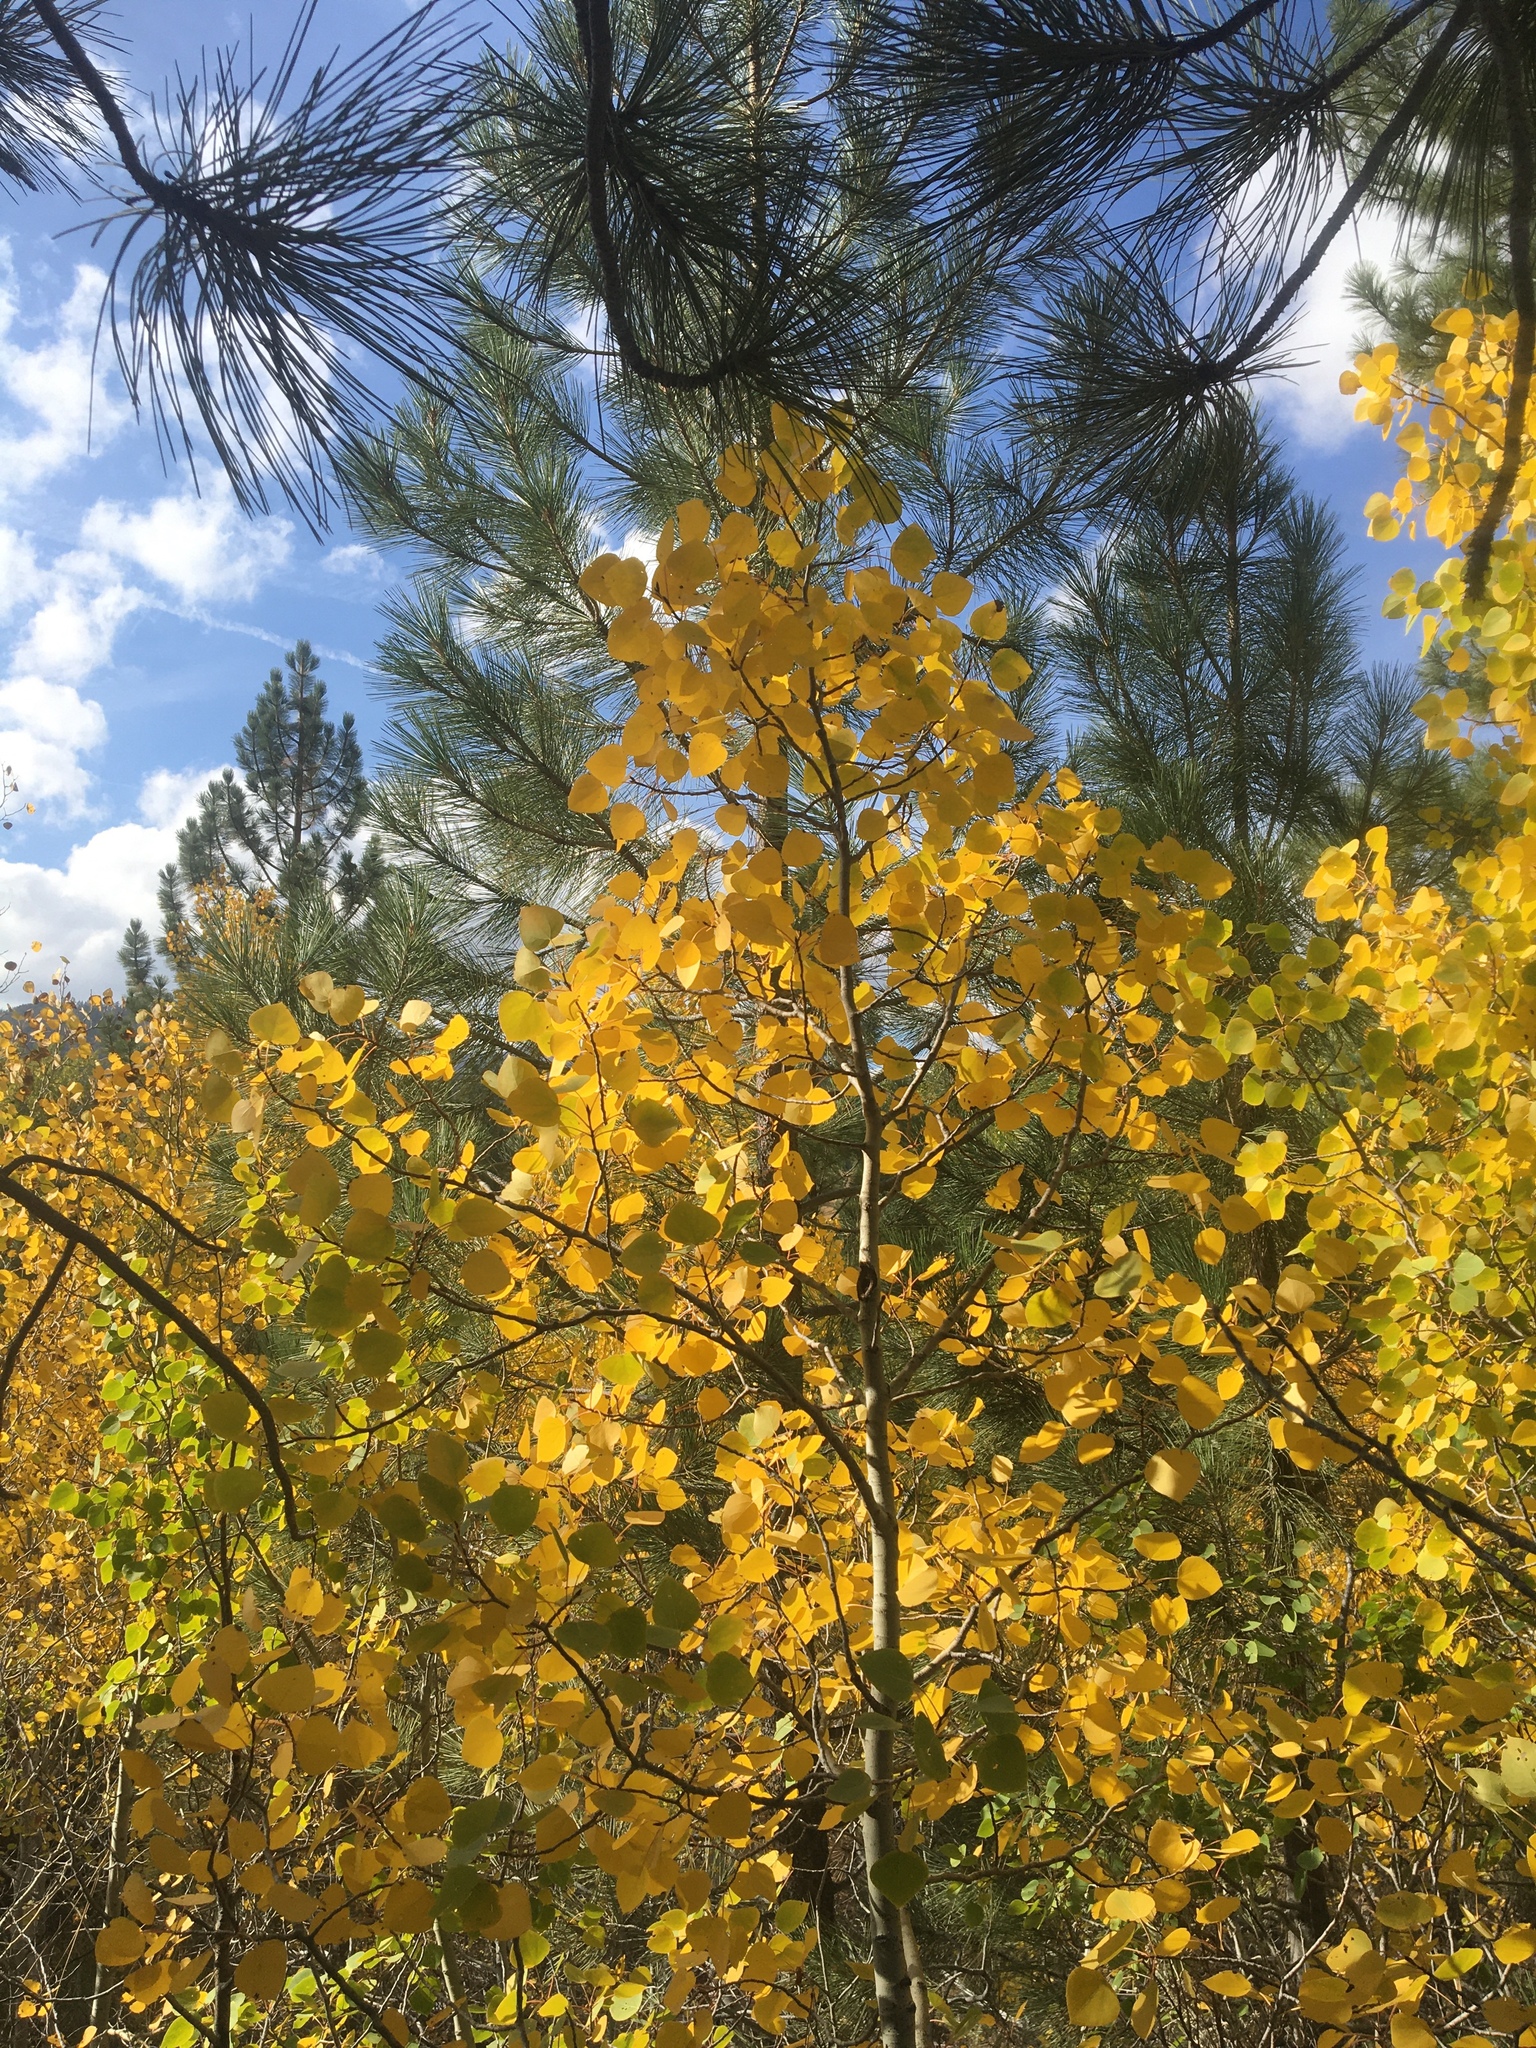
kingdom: Plantae
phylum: Tracheophyta
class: Magnoliopsida
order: Malpighiales
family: Salicaceae
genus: Populus
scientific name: Populus tremuloides
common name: Quaking aspen
